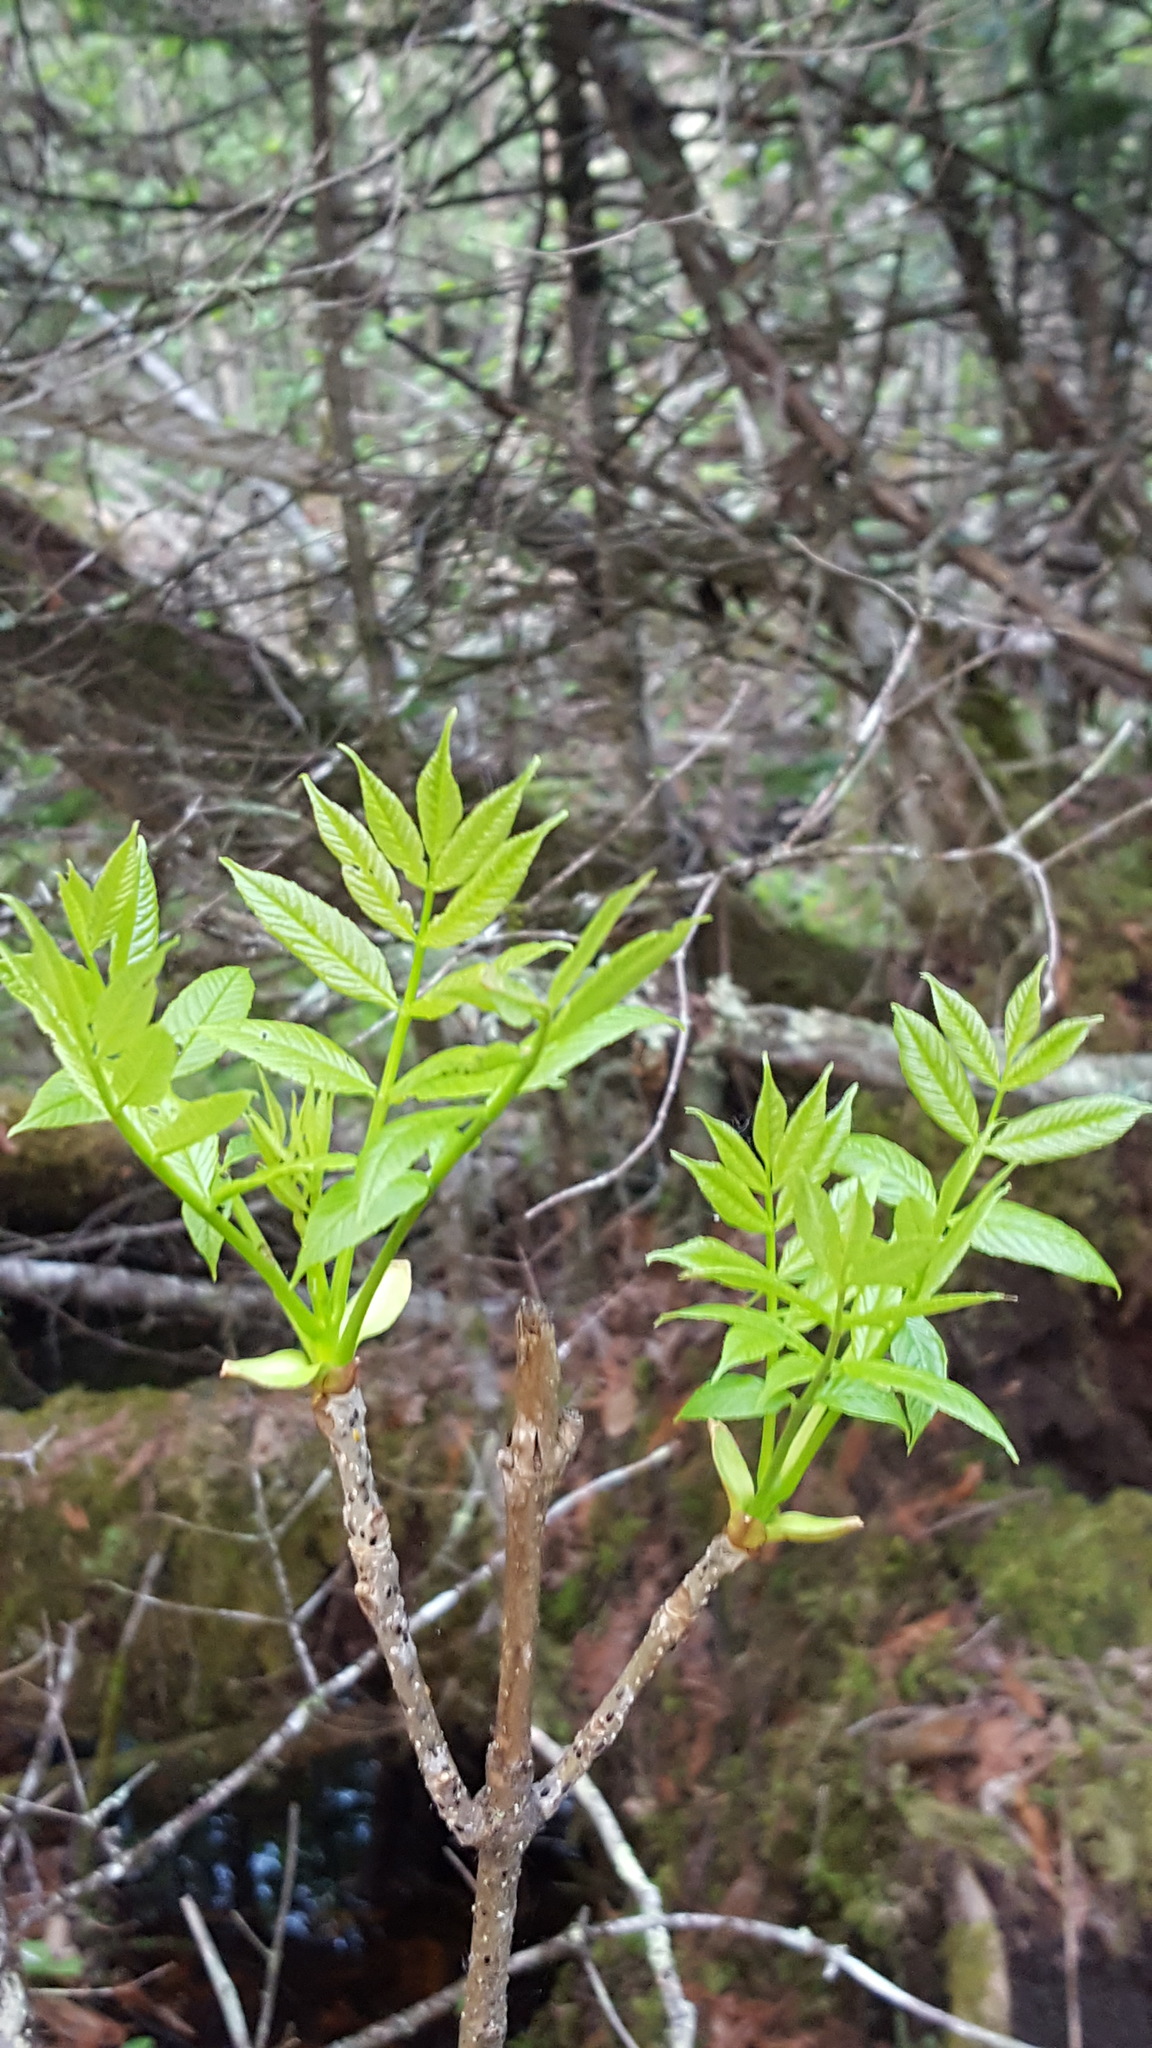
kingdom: Plantae
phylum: Tracheophyta
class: Magnoliopsida
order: Lamiales
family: Oleaceae
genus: Fraxinus
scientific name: Fraxinus nigra
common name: Black ash
